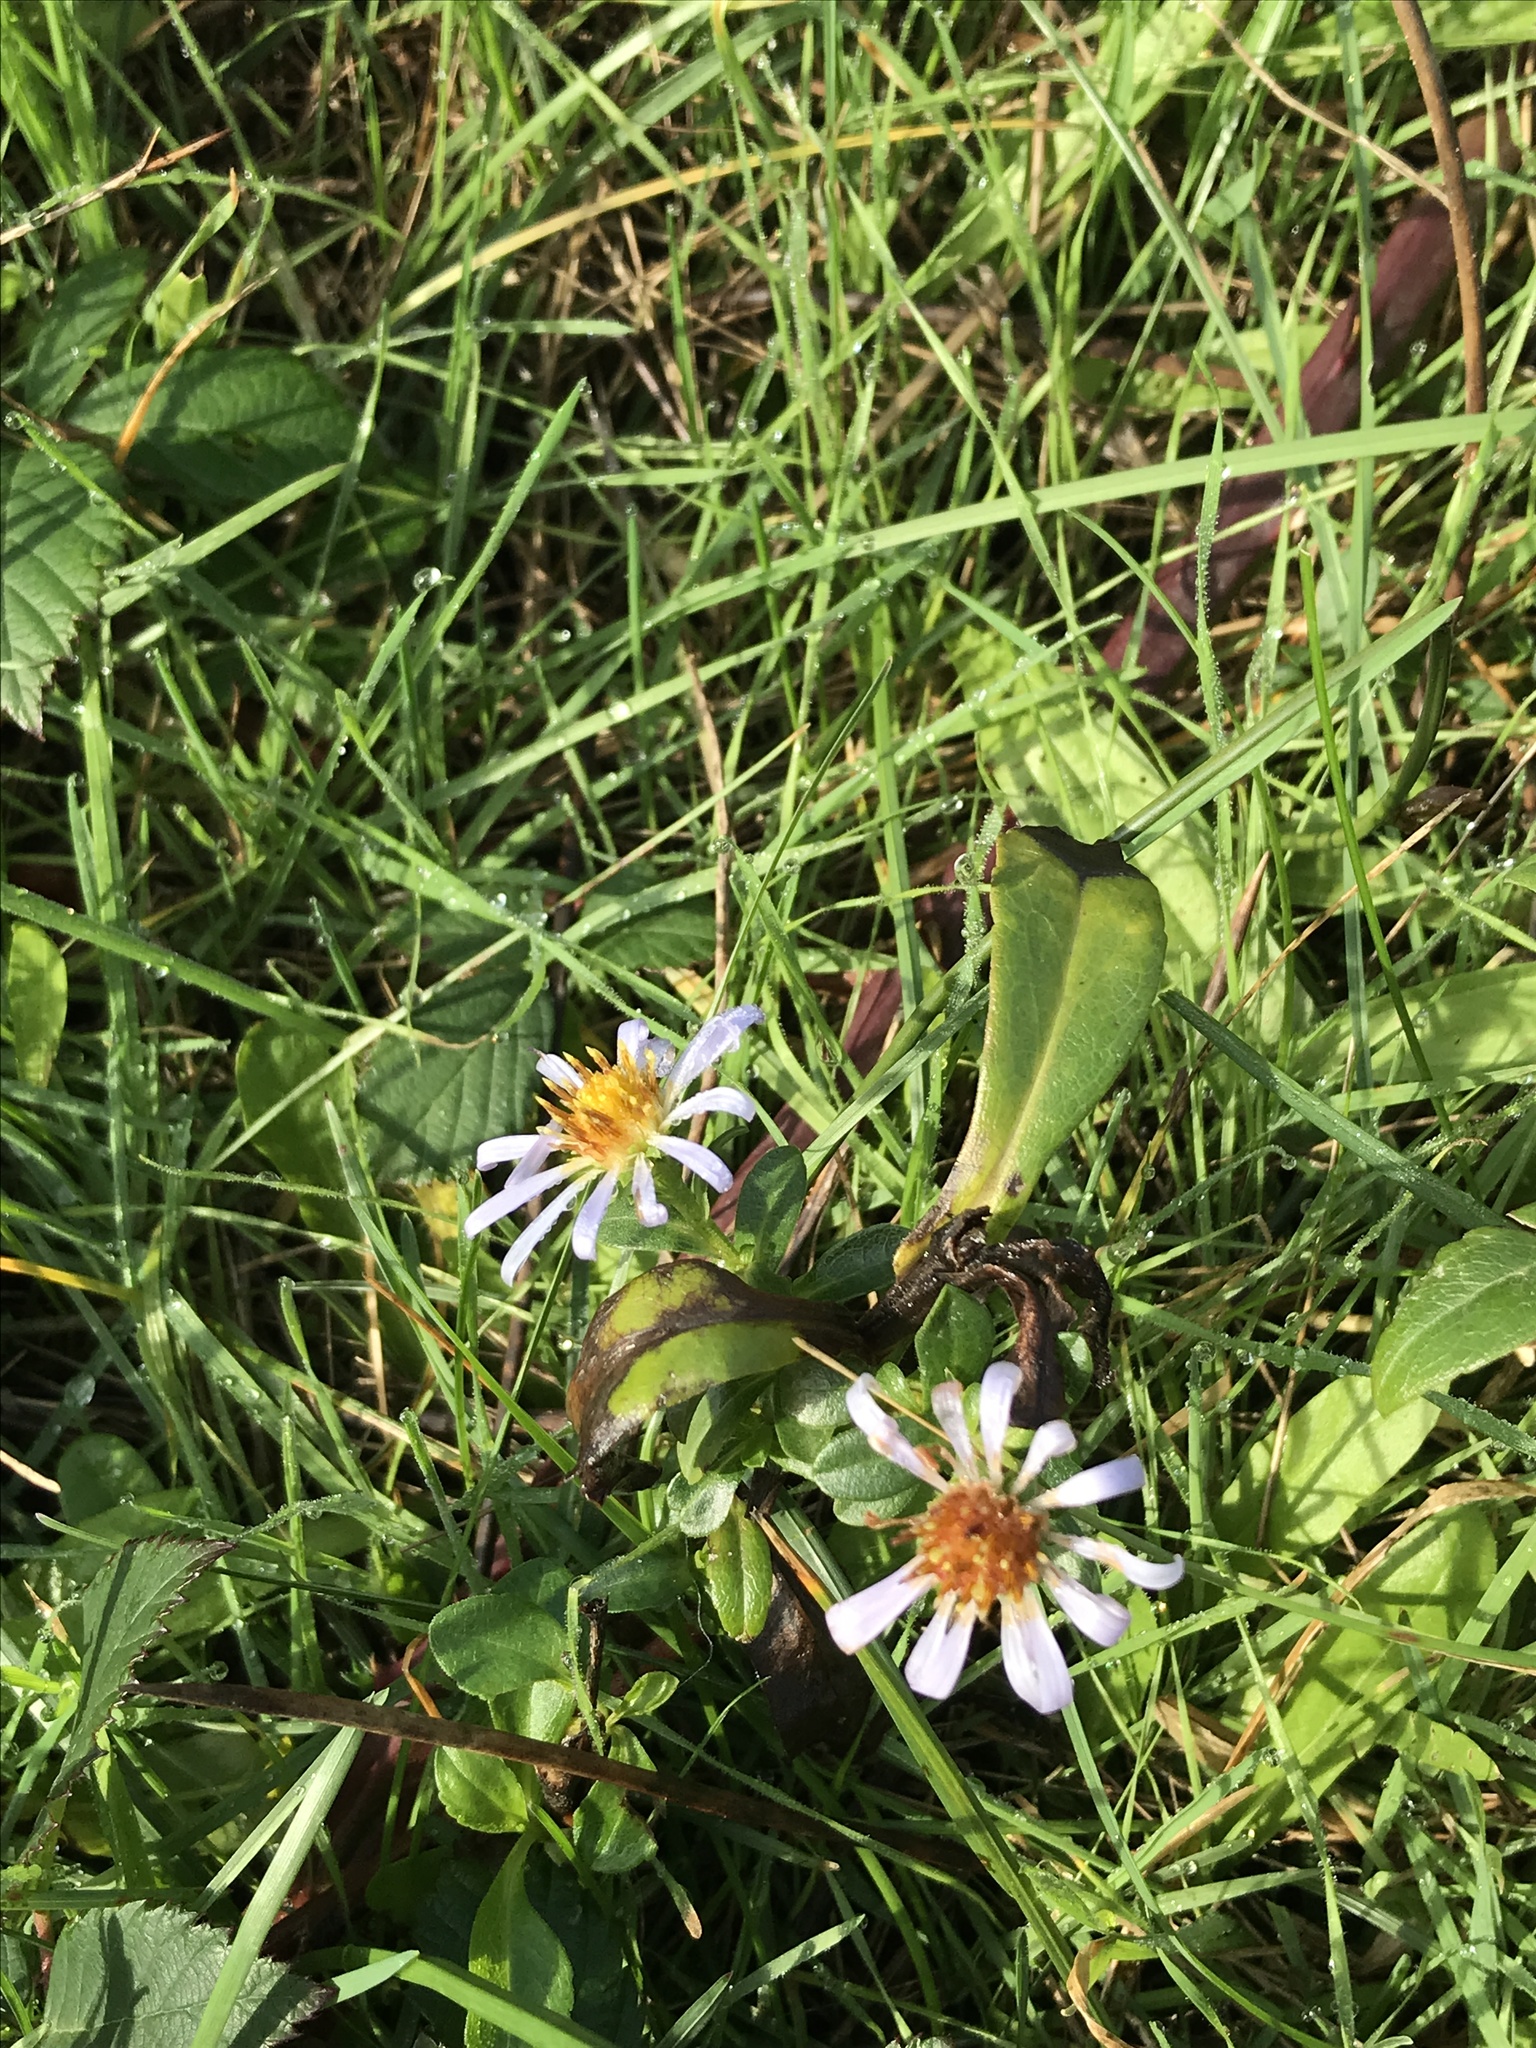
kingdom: Plantae
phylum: Tracheophyta
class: Magnoliopsida
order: Asterales
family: Asteraceae
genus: Symphyotrichum
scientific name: Symphyotrichum chilense
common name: Pacific aster
